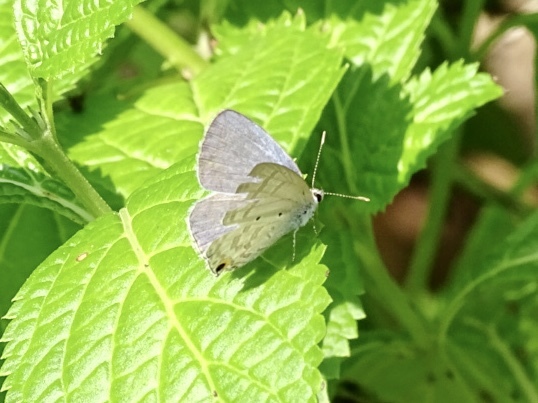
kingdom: Animalia
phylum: Arthropoda
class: Insecta
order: Lepidoptera
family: Lycaenidae
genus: Catochrysops
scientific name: Catochrysops strabo
